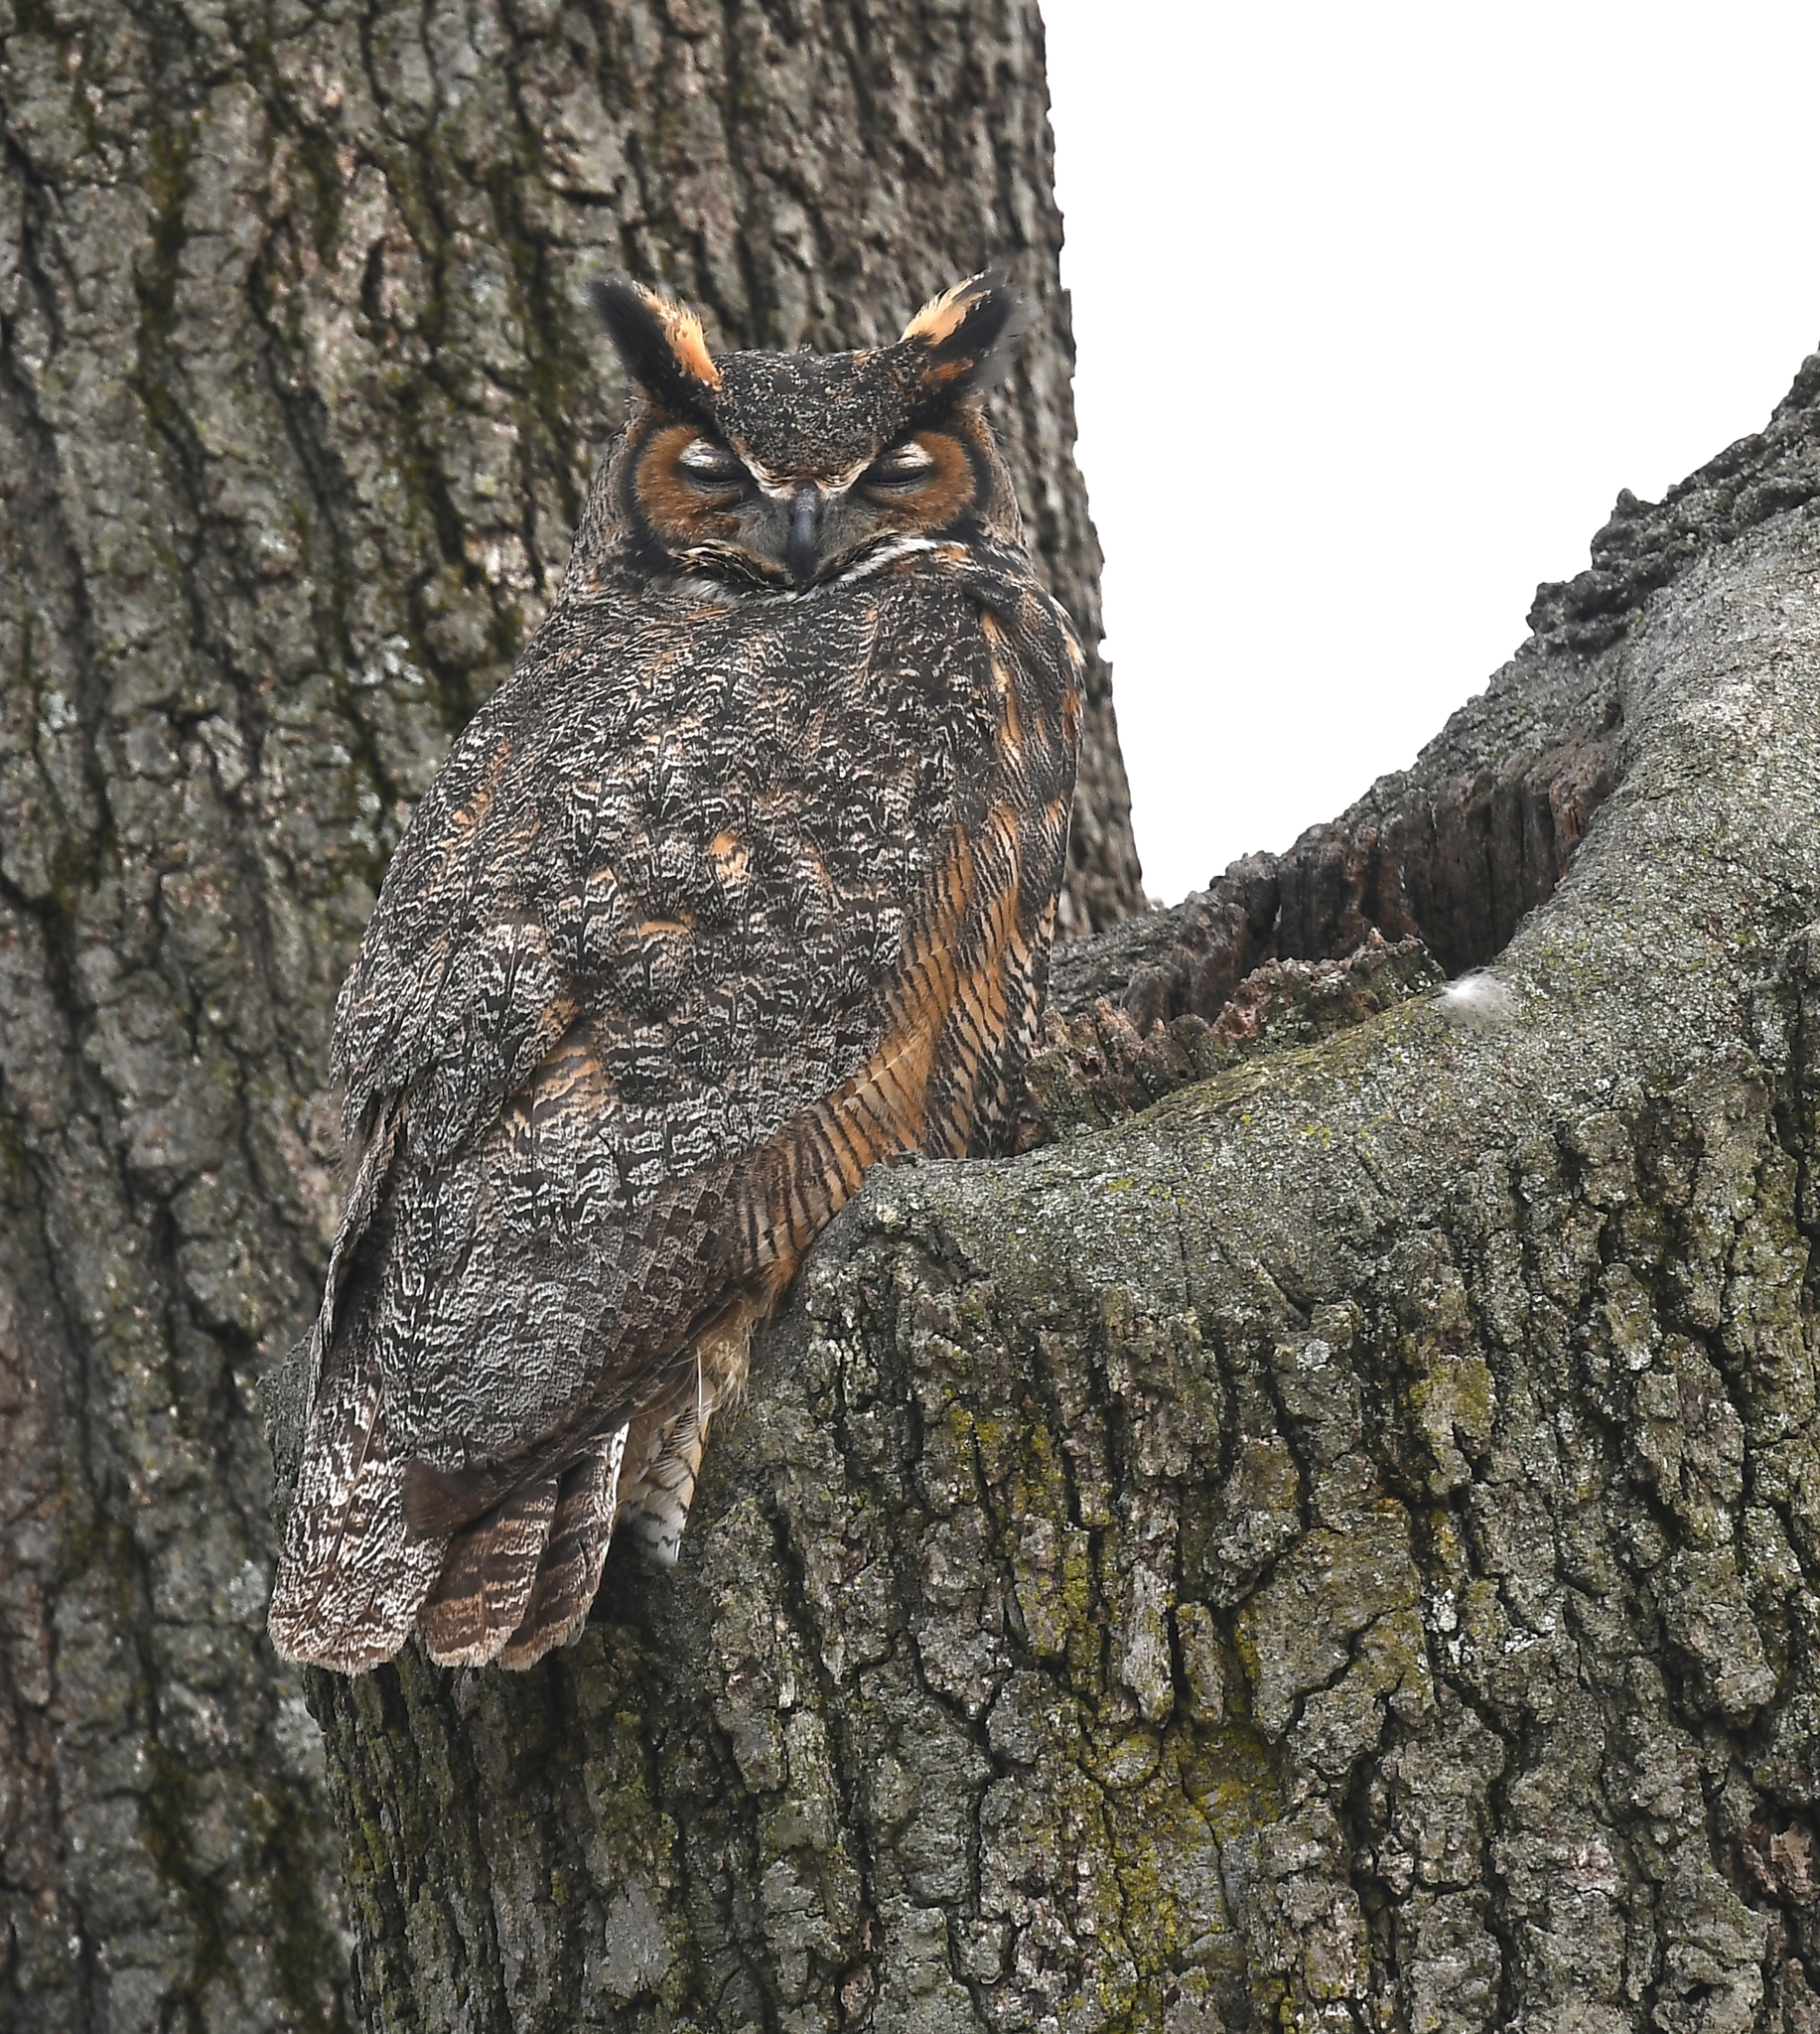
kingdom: Animalia
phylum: Chordata
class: Aves
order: Strigiformes
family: Strigidae
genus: Bubo
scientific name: Bubo virginianus
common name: Great horned owl
